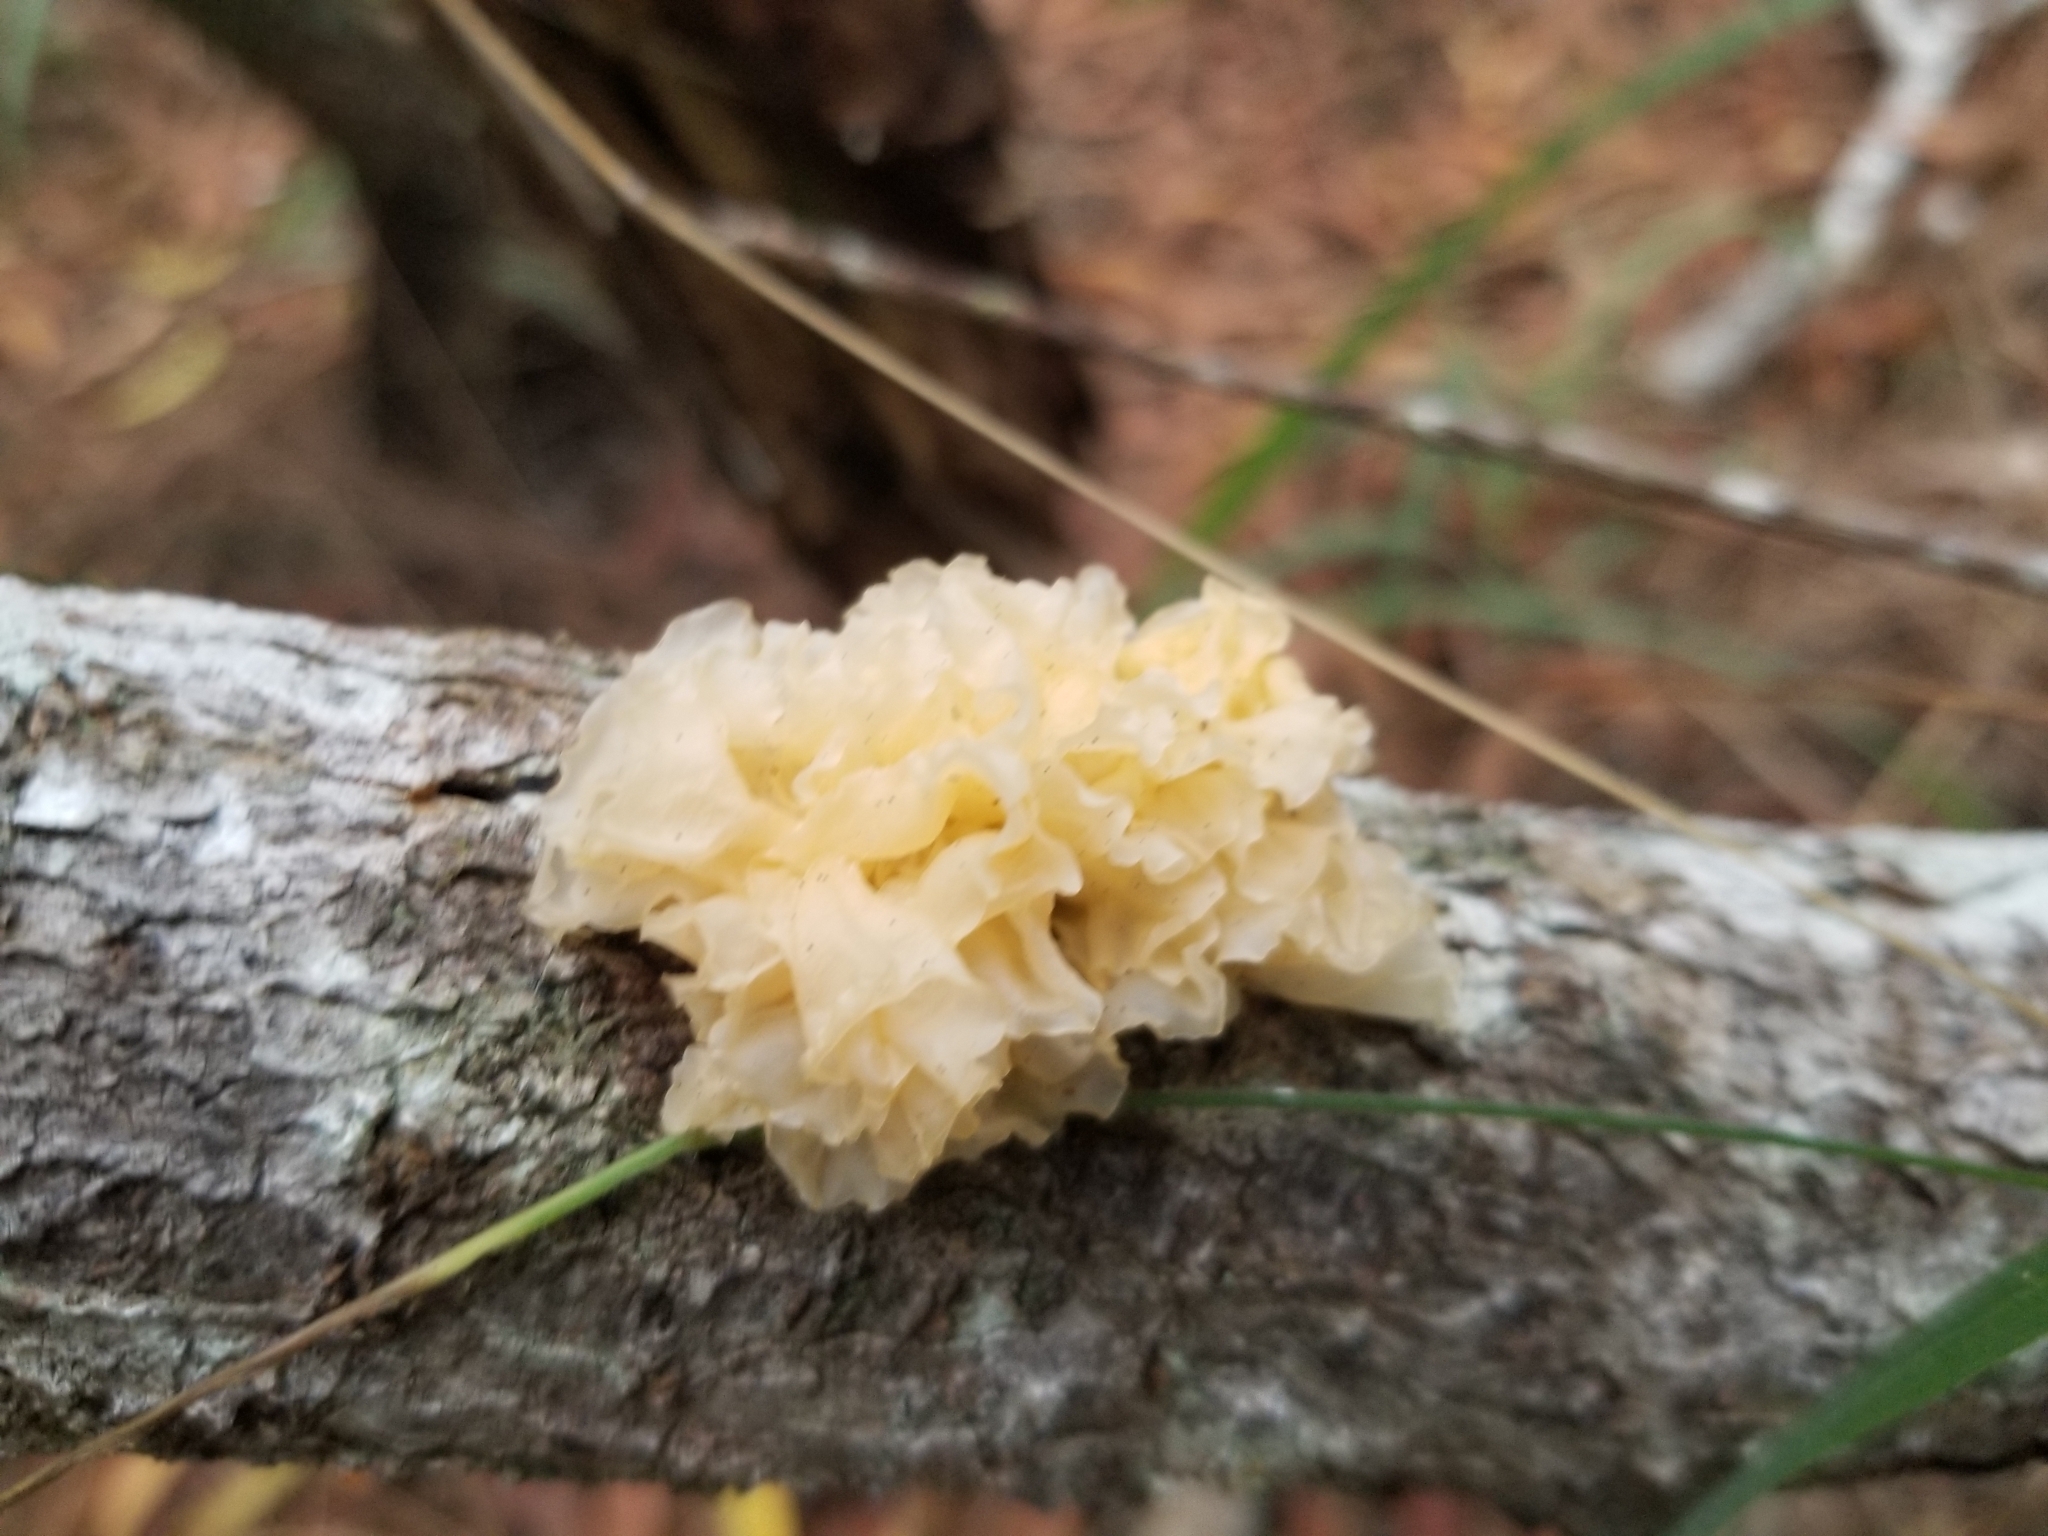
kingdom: Fungi
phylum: Basidiomycota
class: Tremellomycetes
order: Tremellales
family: Tremellaceae
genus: Tremella
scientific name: Tremella fuciformis
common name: Snow fungus
